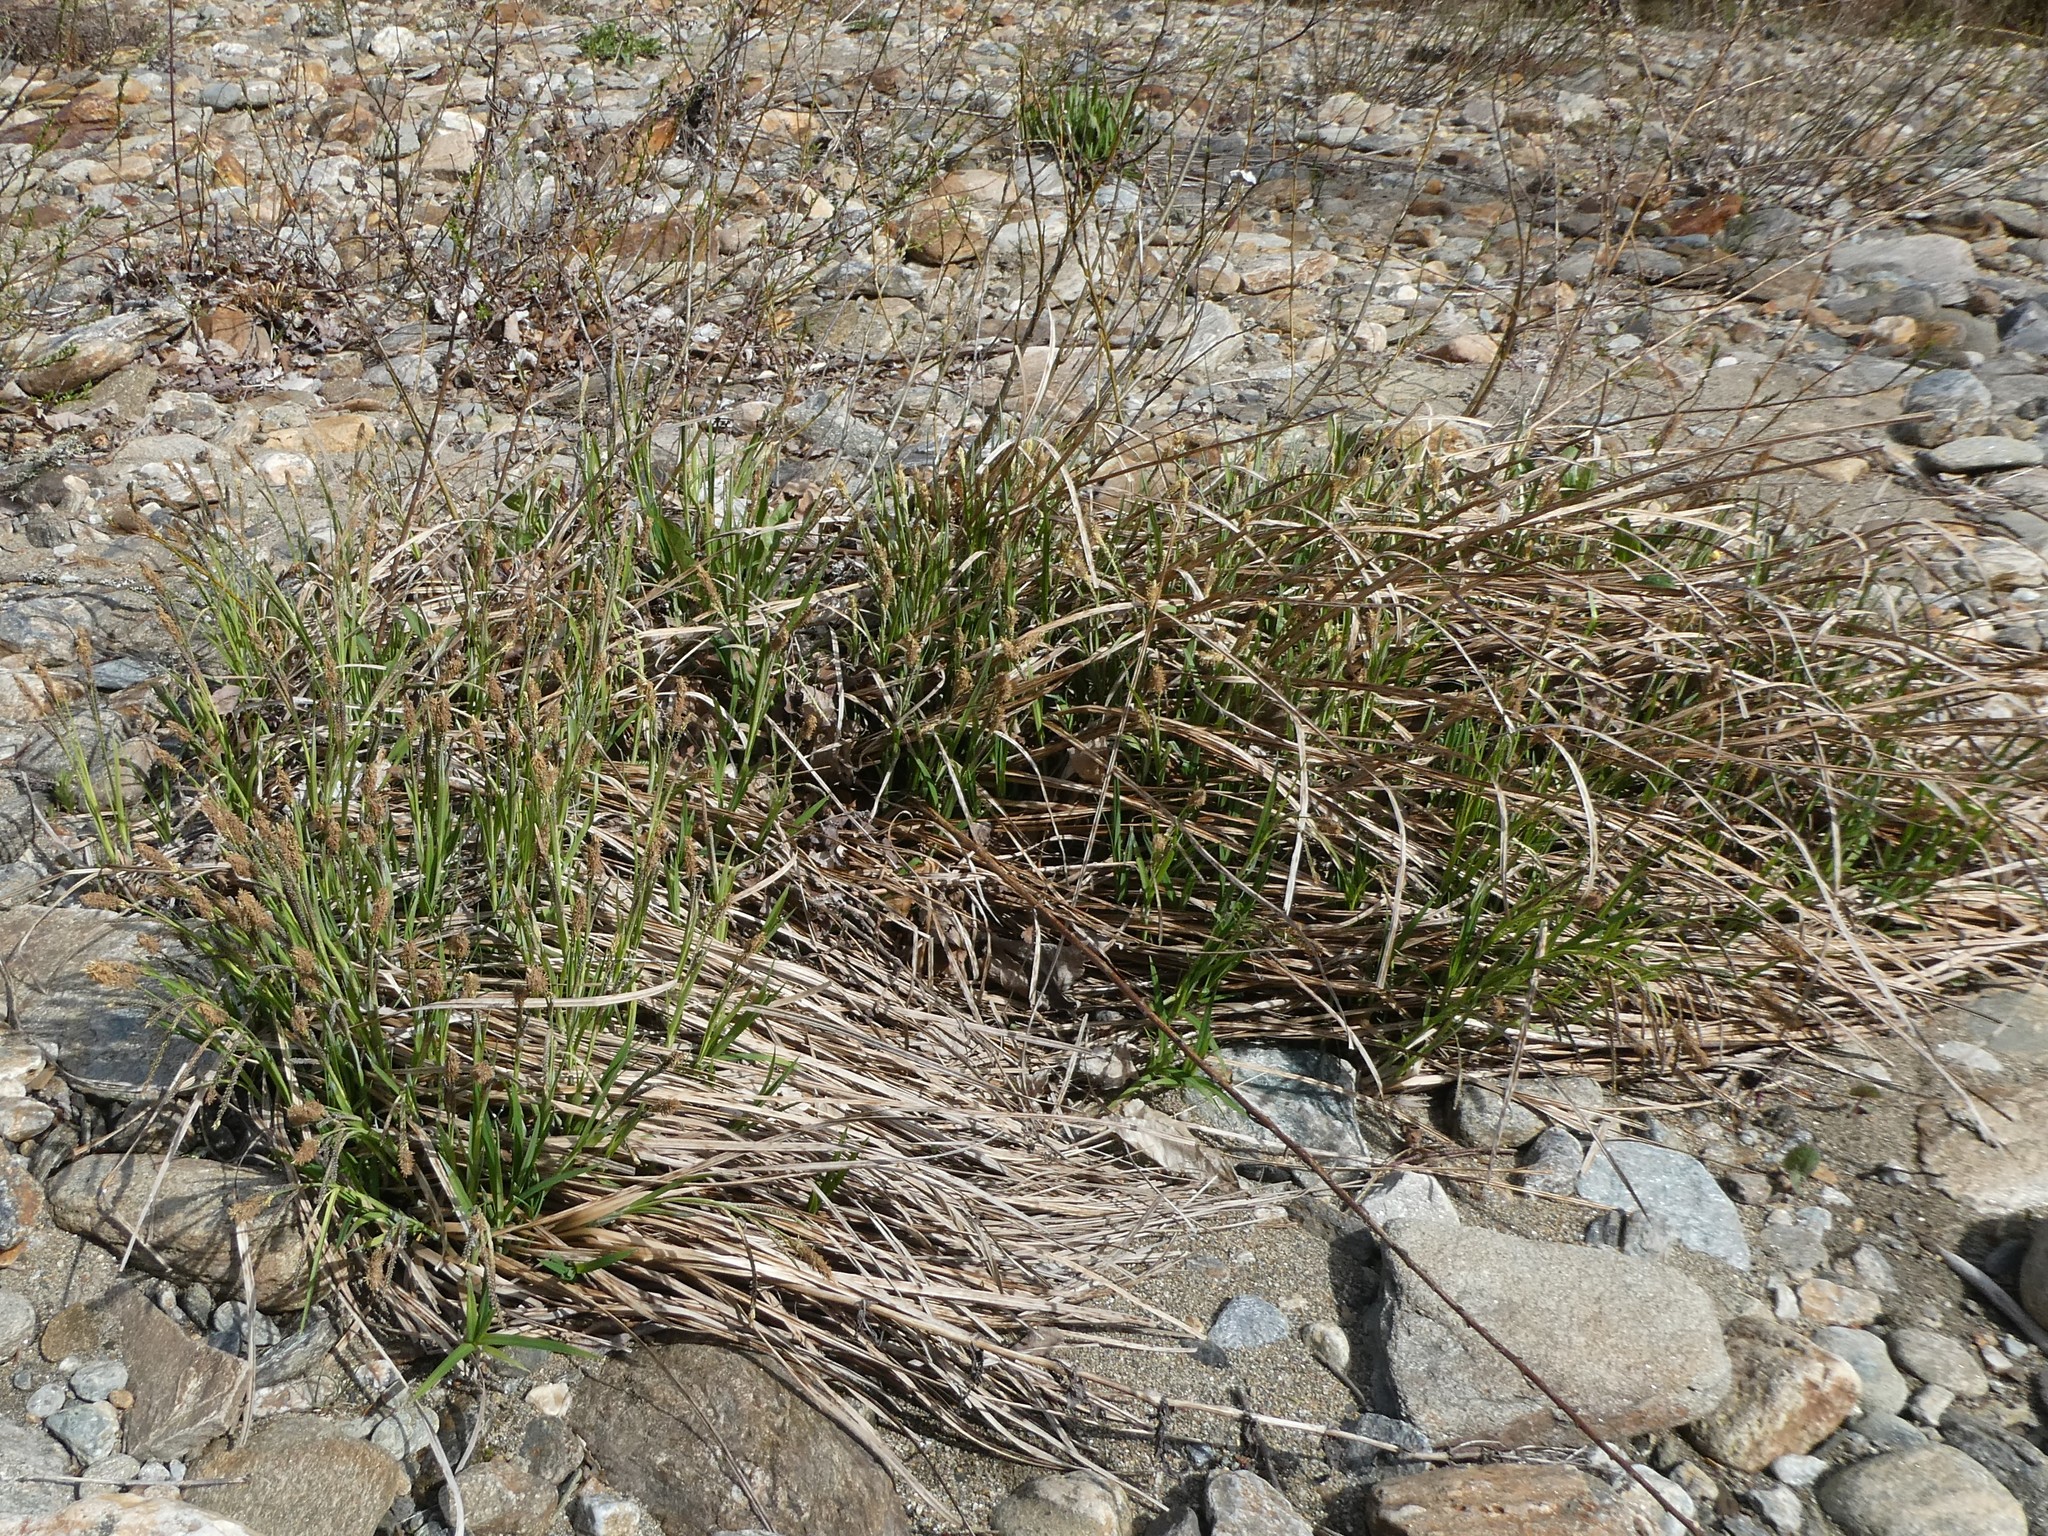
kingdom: Plantae
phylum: Tracheophyta
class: Liliopsida
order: Poales
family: Cyperaceae
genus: Carex
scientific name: Carex torta
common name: Twisted sedge
